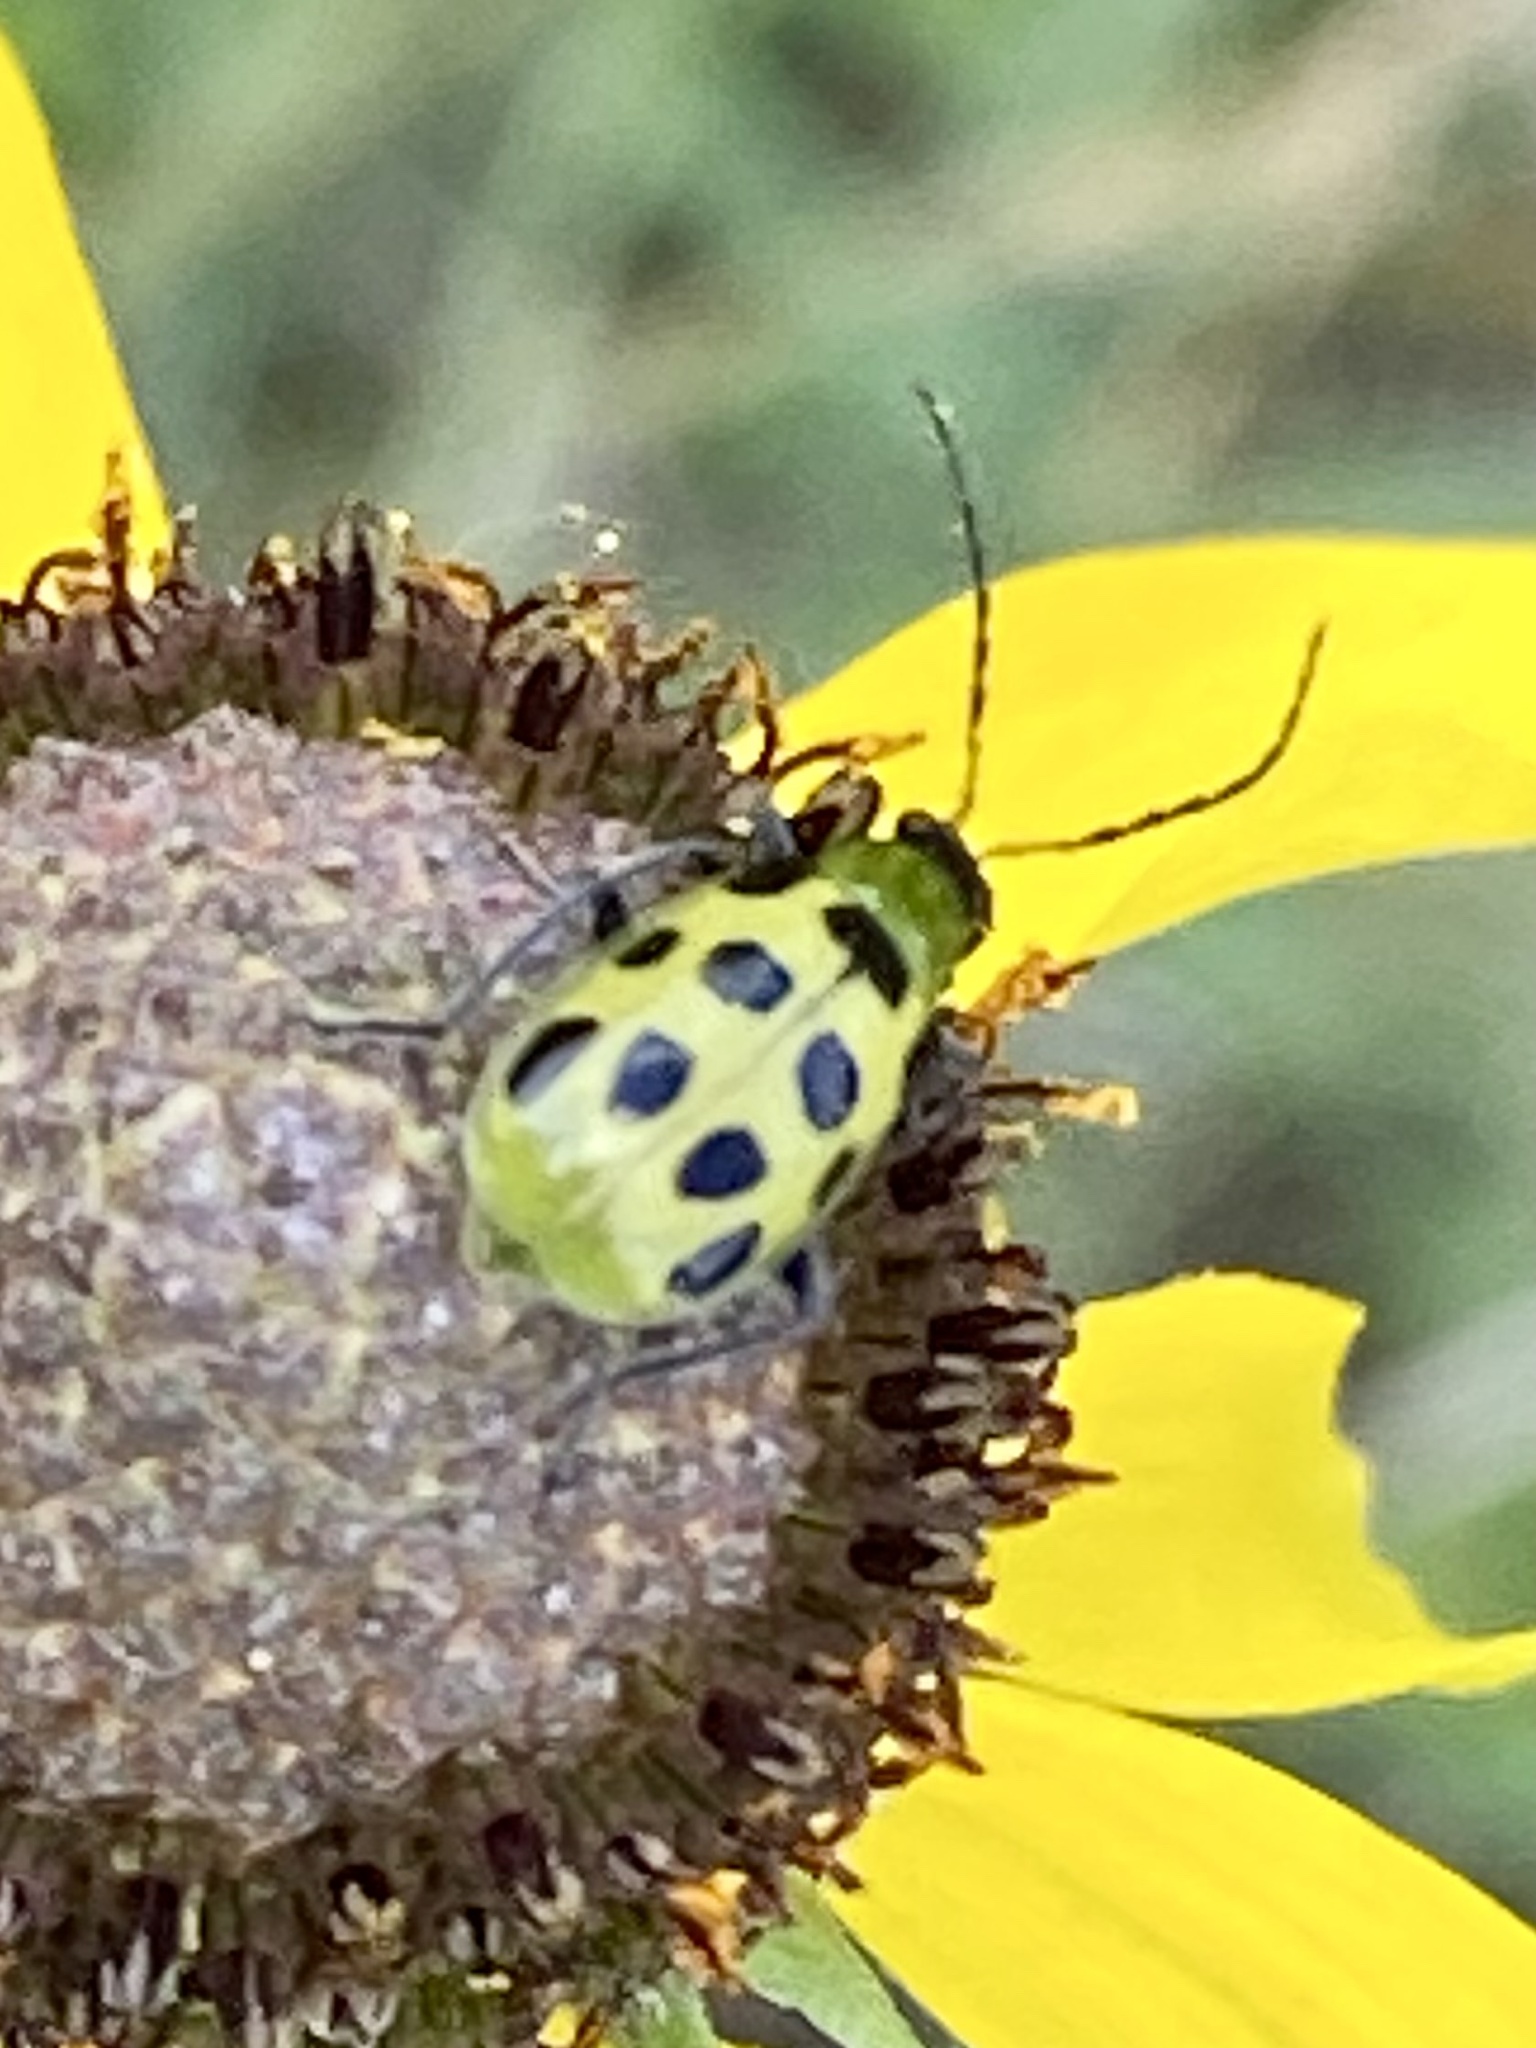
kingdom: Animalia
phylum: Arthropoda
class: Insecta
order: Coleoptera
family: Chrysomelidae
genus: Diabrotica
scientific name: Diabrotica undecimpunctata
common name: Spotted cucumber beetle
